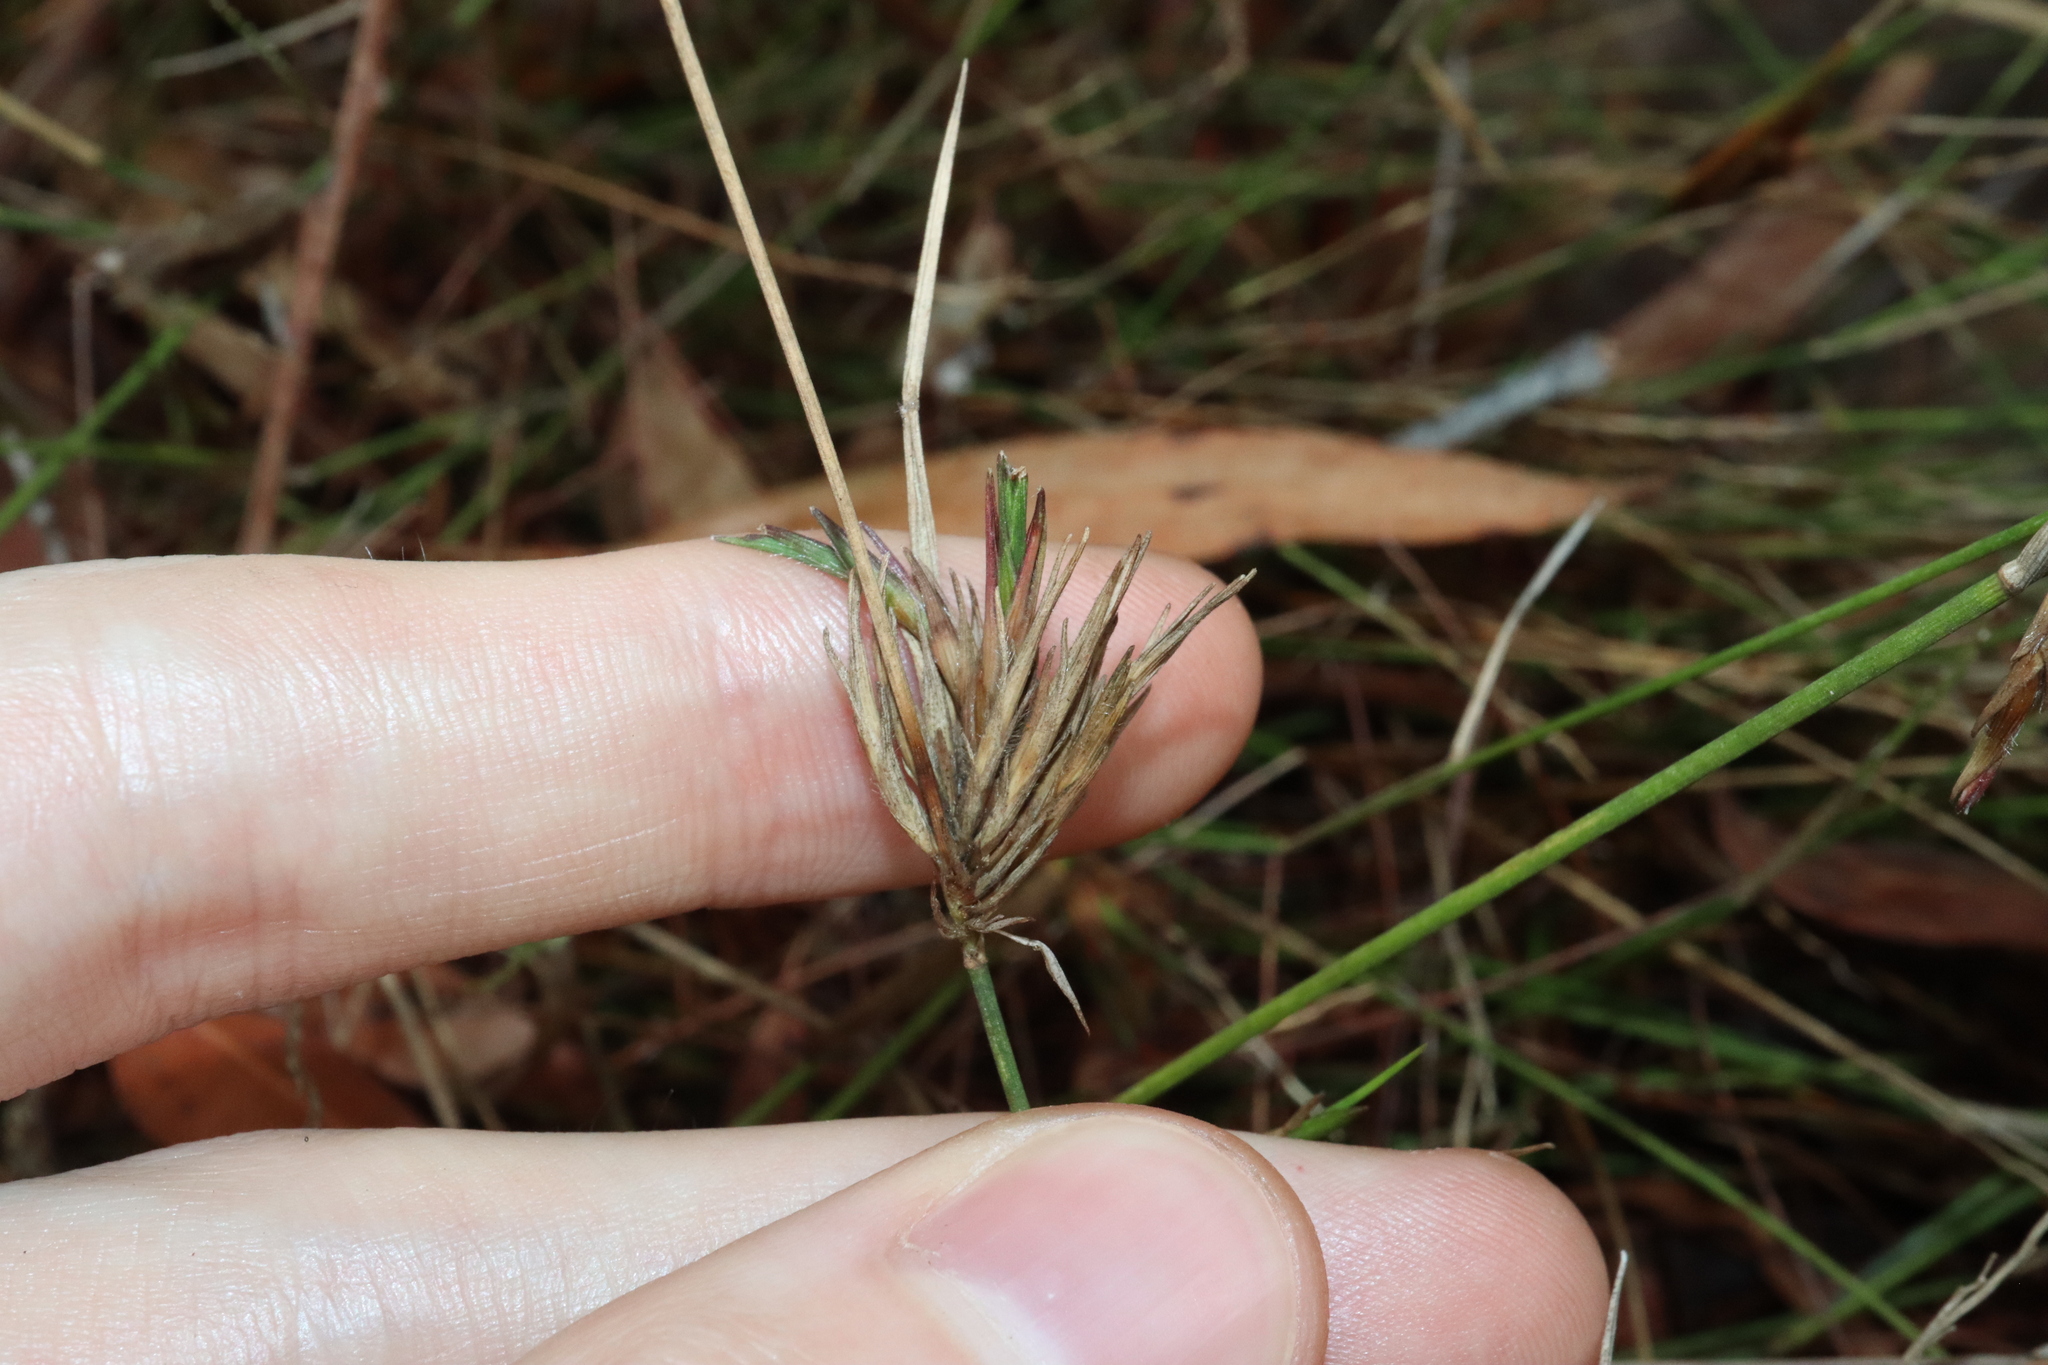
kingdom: Plantae
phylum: Tracheophyta
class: Liliopsida
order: Poales
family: Poaceae
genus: Entolasia
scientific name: Entolasia stricta
